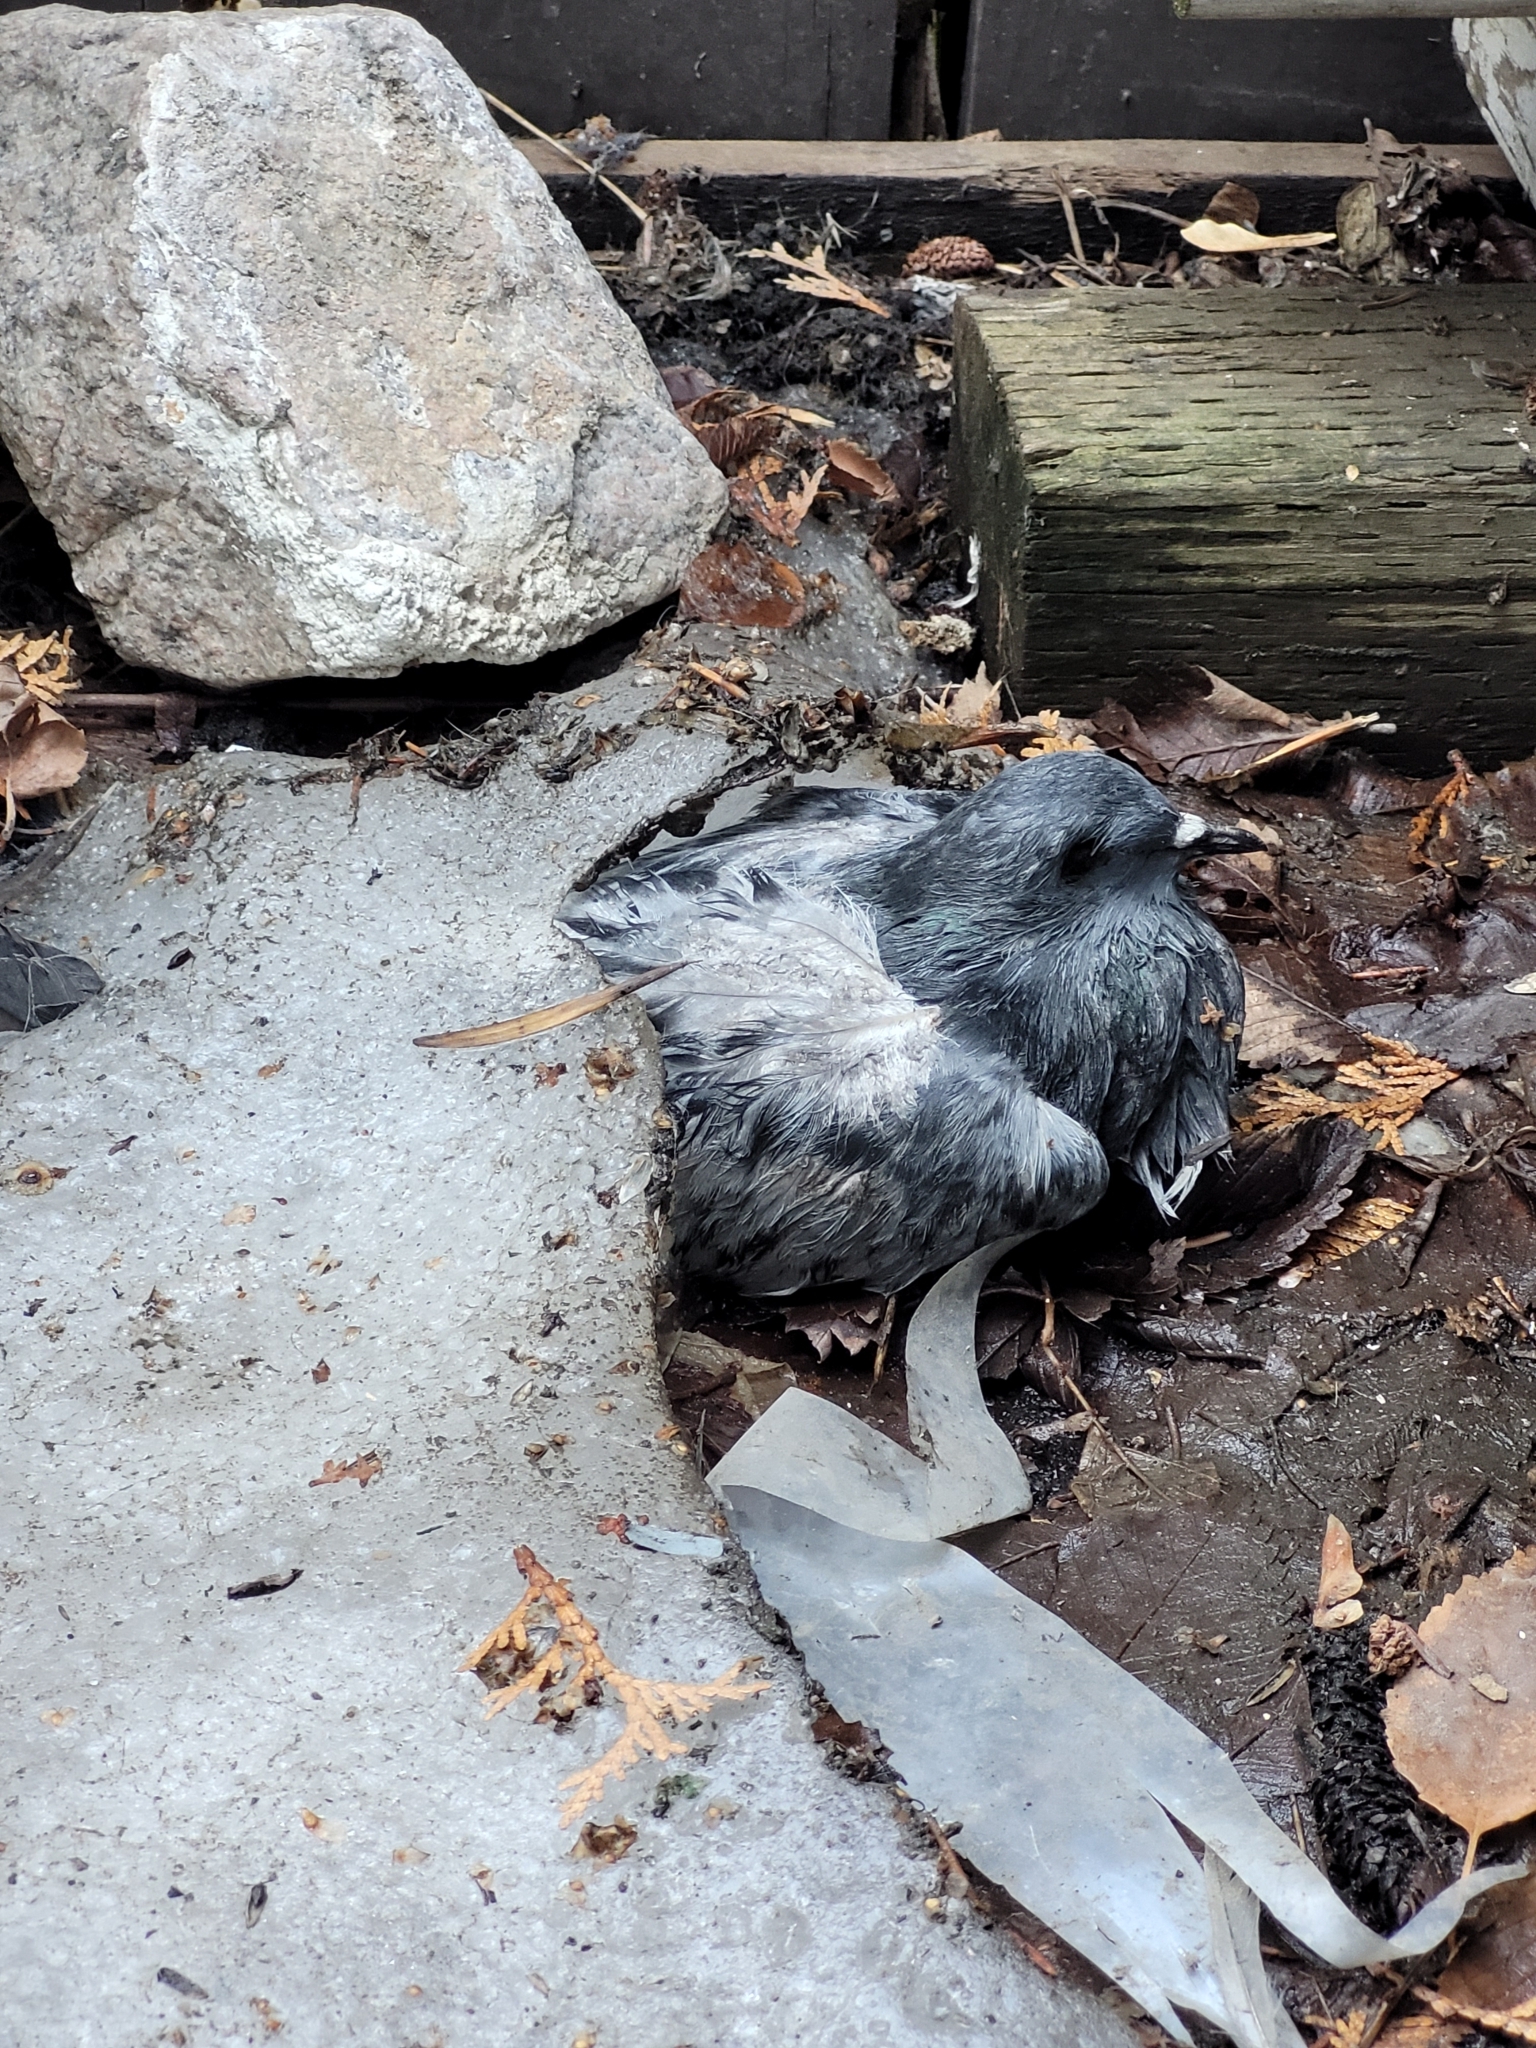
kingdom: Animalia
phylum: Chordata
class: Aves
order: Columbiformes
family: Columbidae
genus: Columba
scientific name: Columba livia
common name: Rock pigeon
